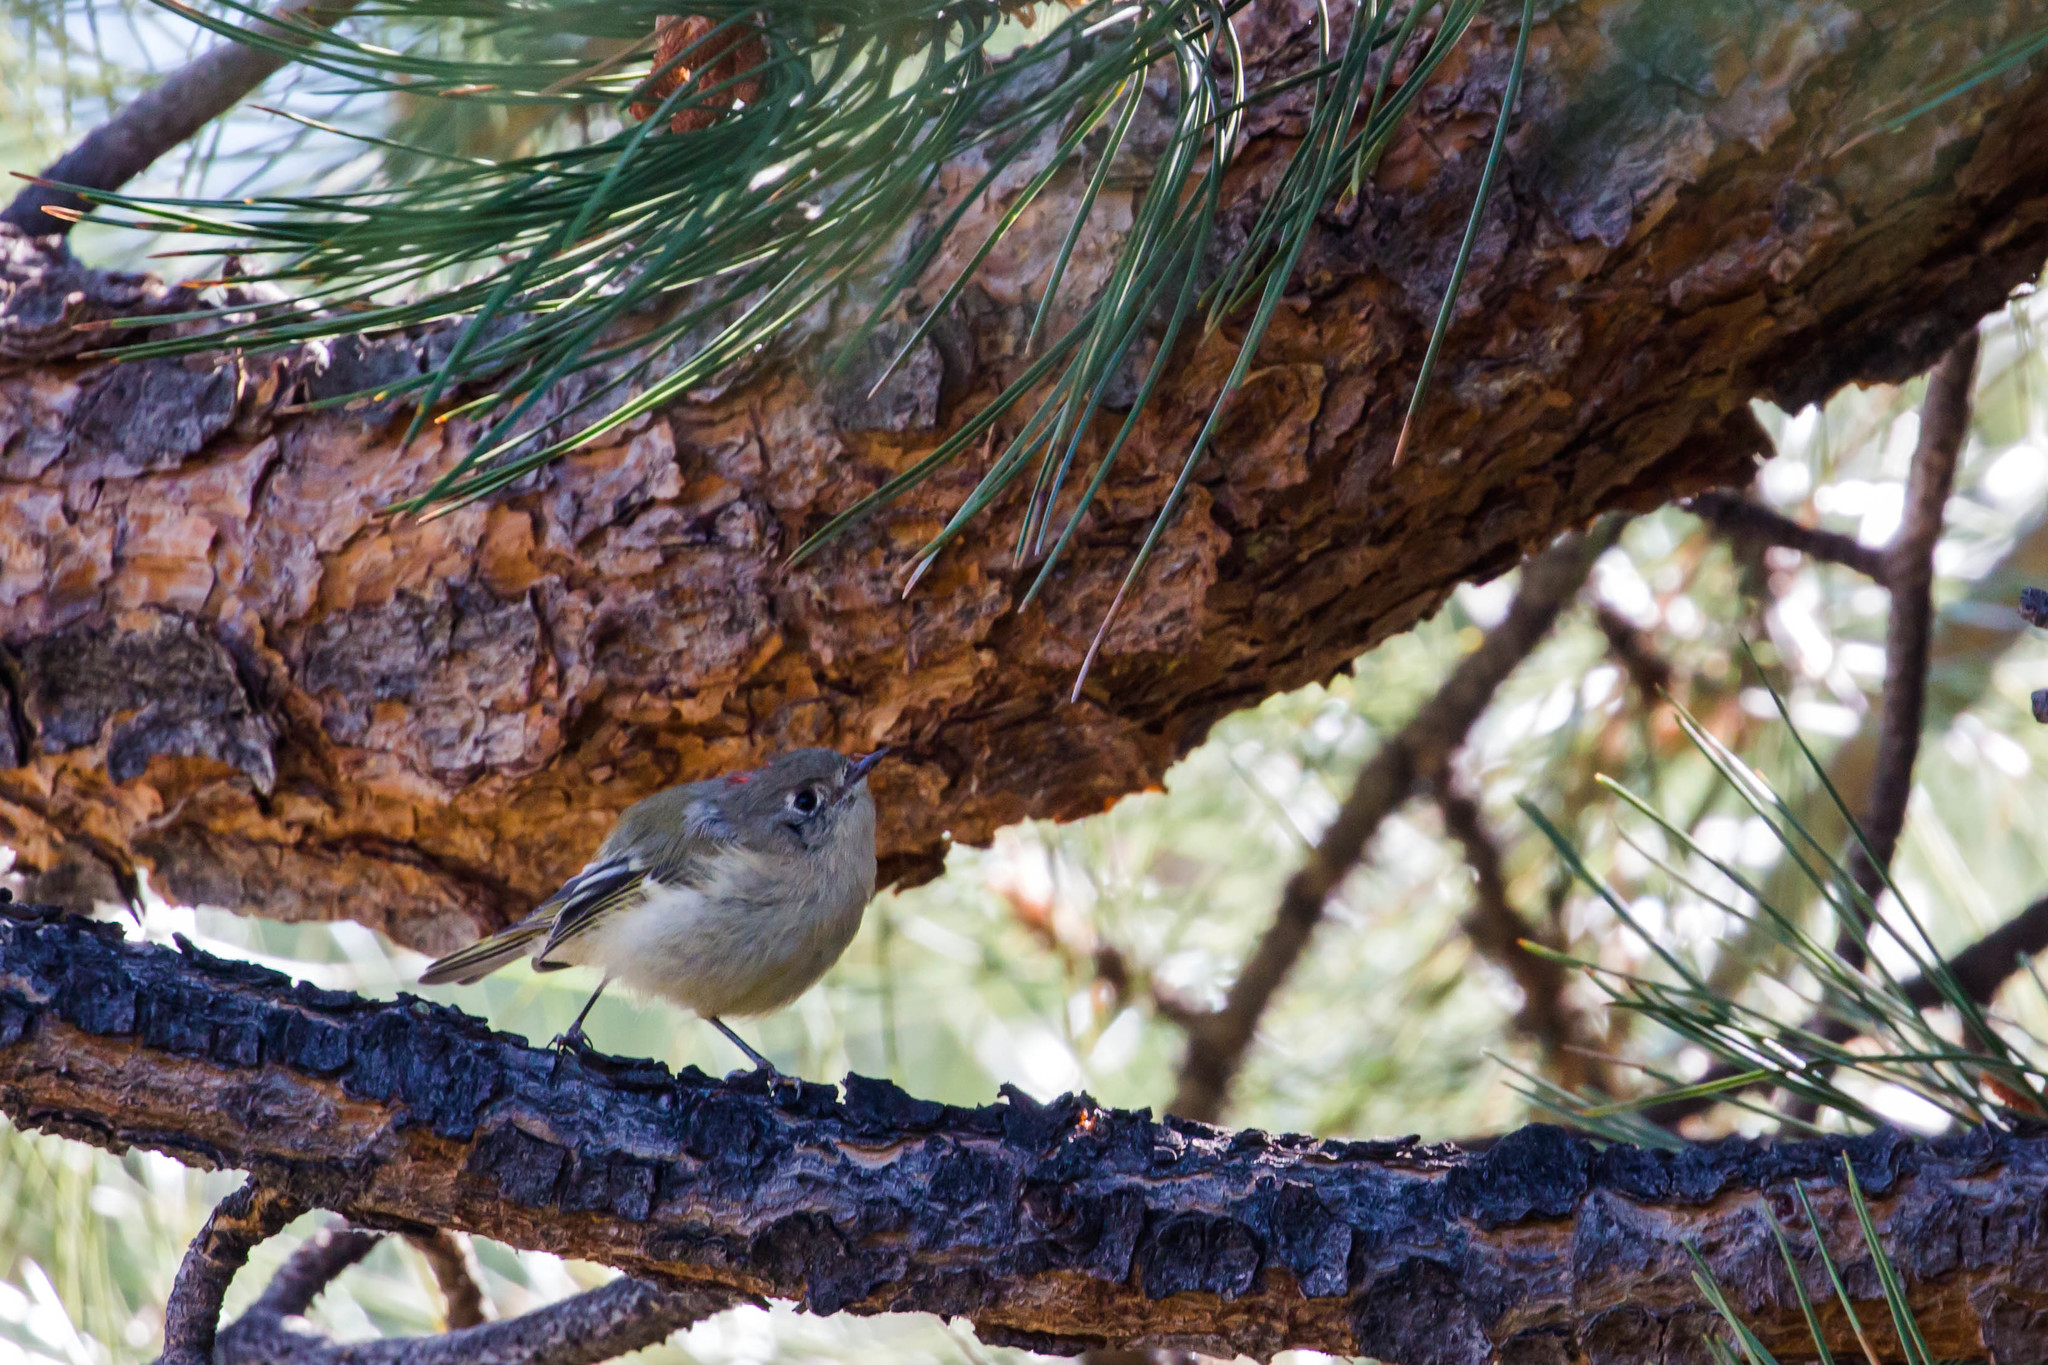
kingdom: Animalia
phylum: Chordata
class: Aves
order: Passeriformes
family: Regulidae
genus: Regulus
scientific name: Regulus calendula
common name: Ruby-crowned kinglet
